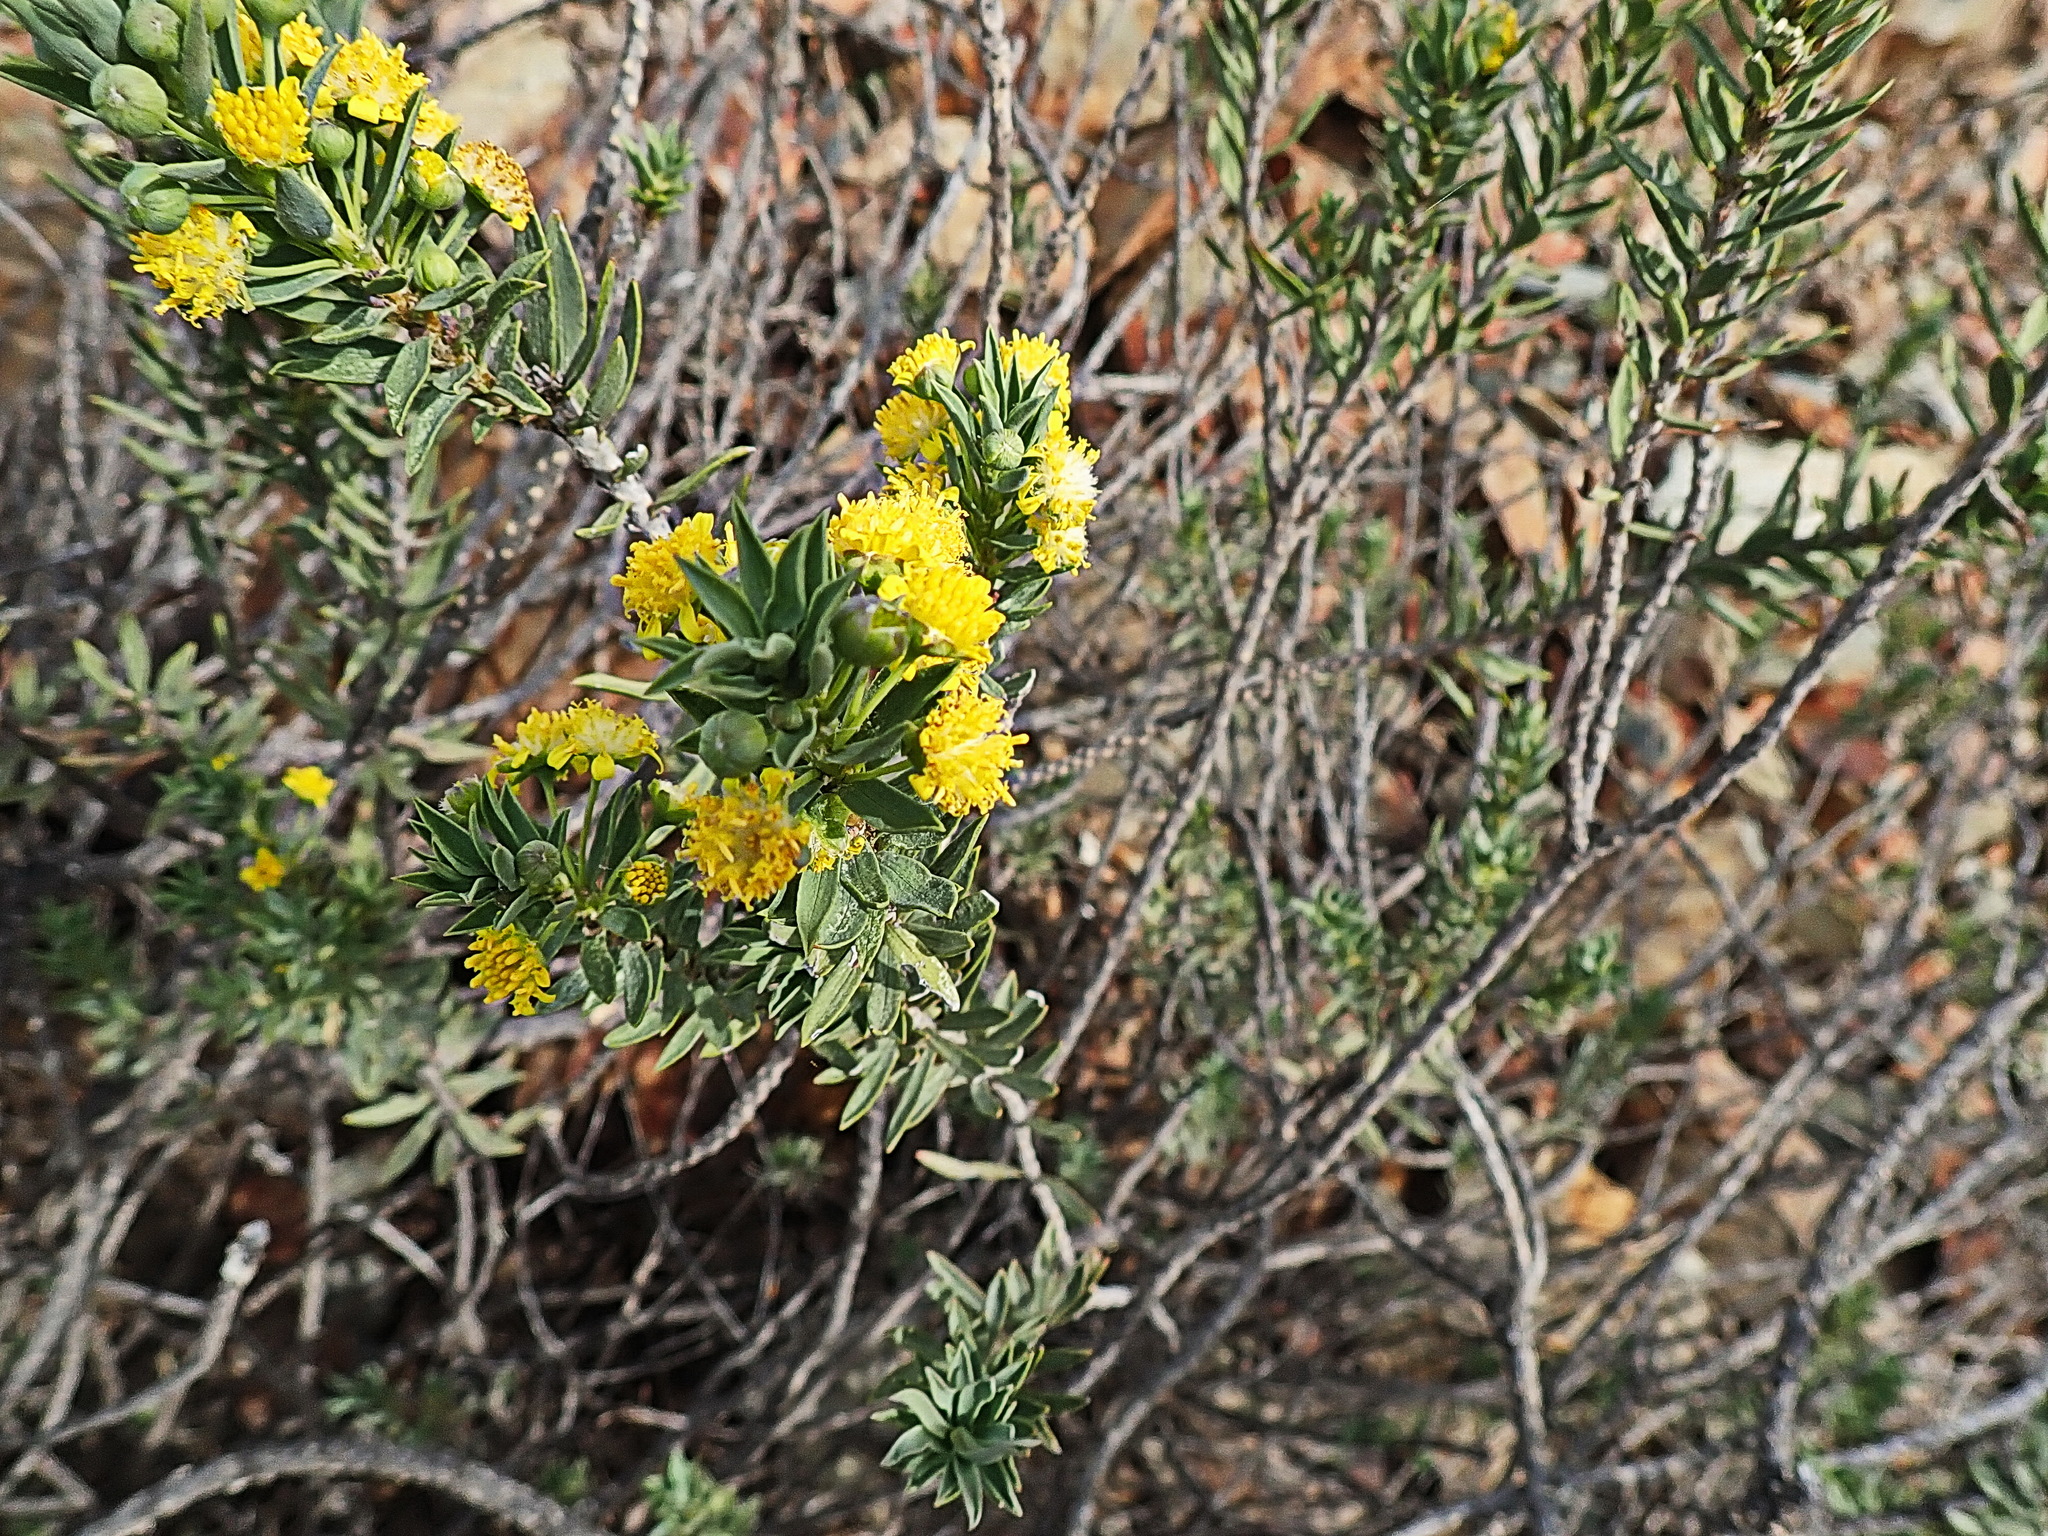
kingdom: Plantae
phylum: Tracheophyta
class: Magnoliopsida
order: Asterales
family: Asteraceae
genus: Oedera
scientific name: Oedera genistifolia
